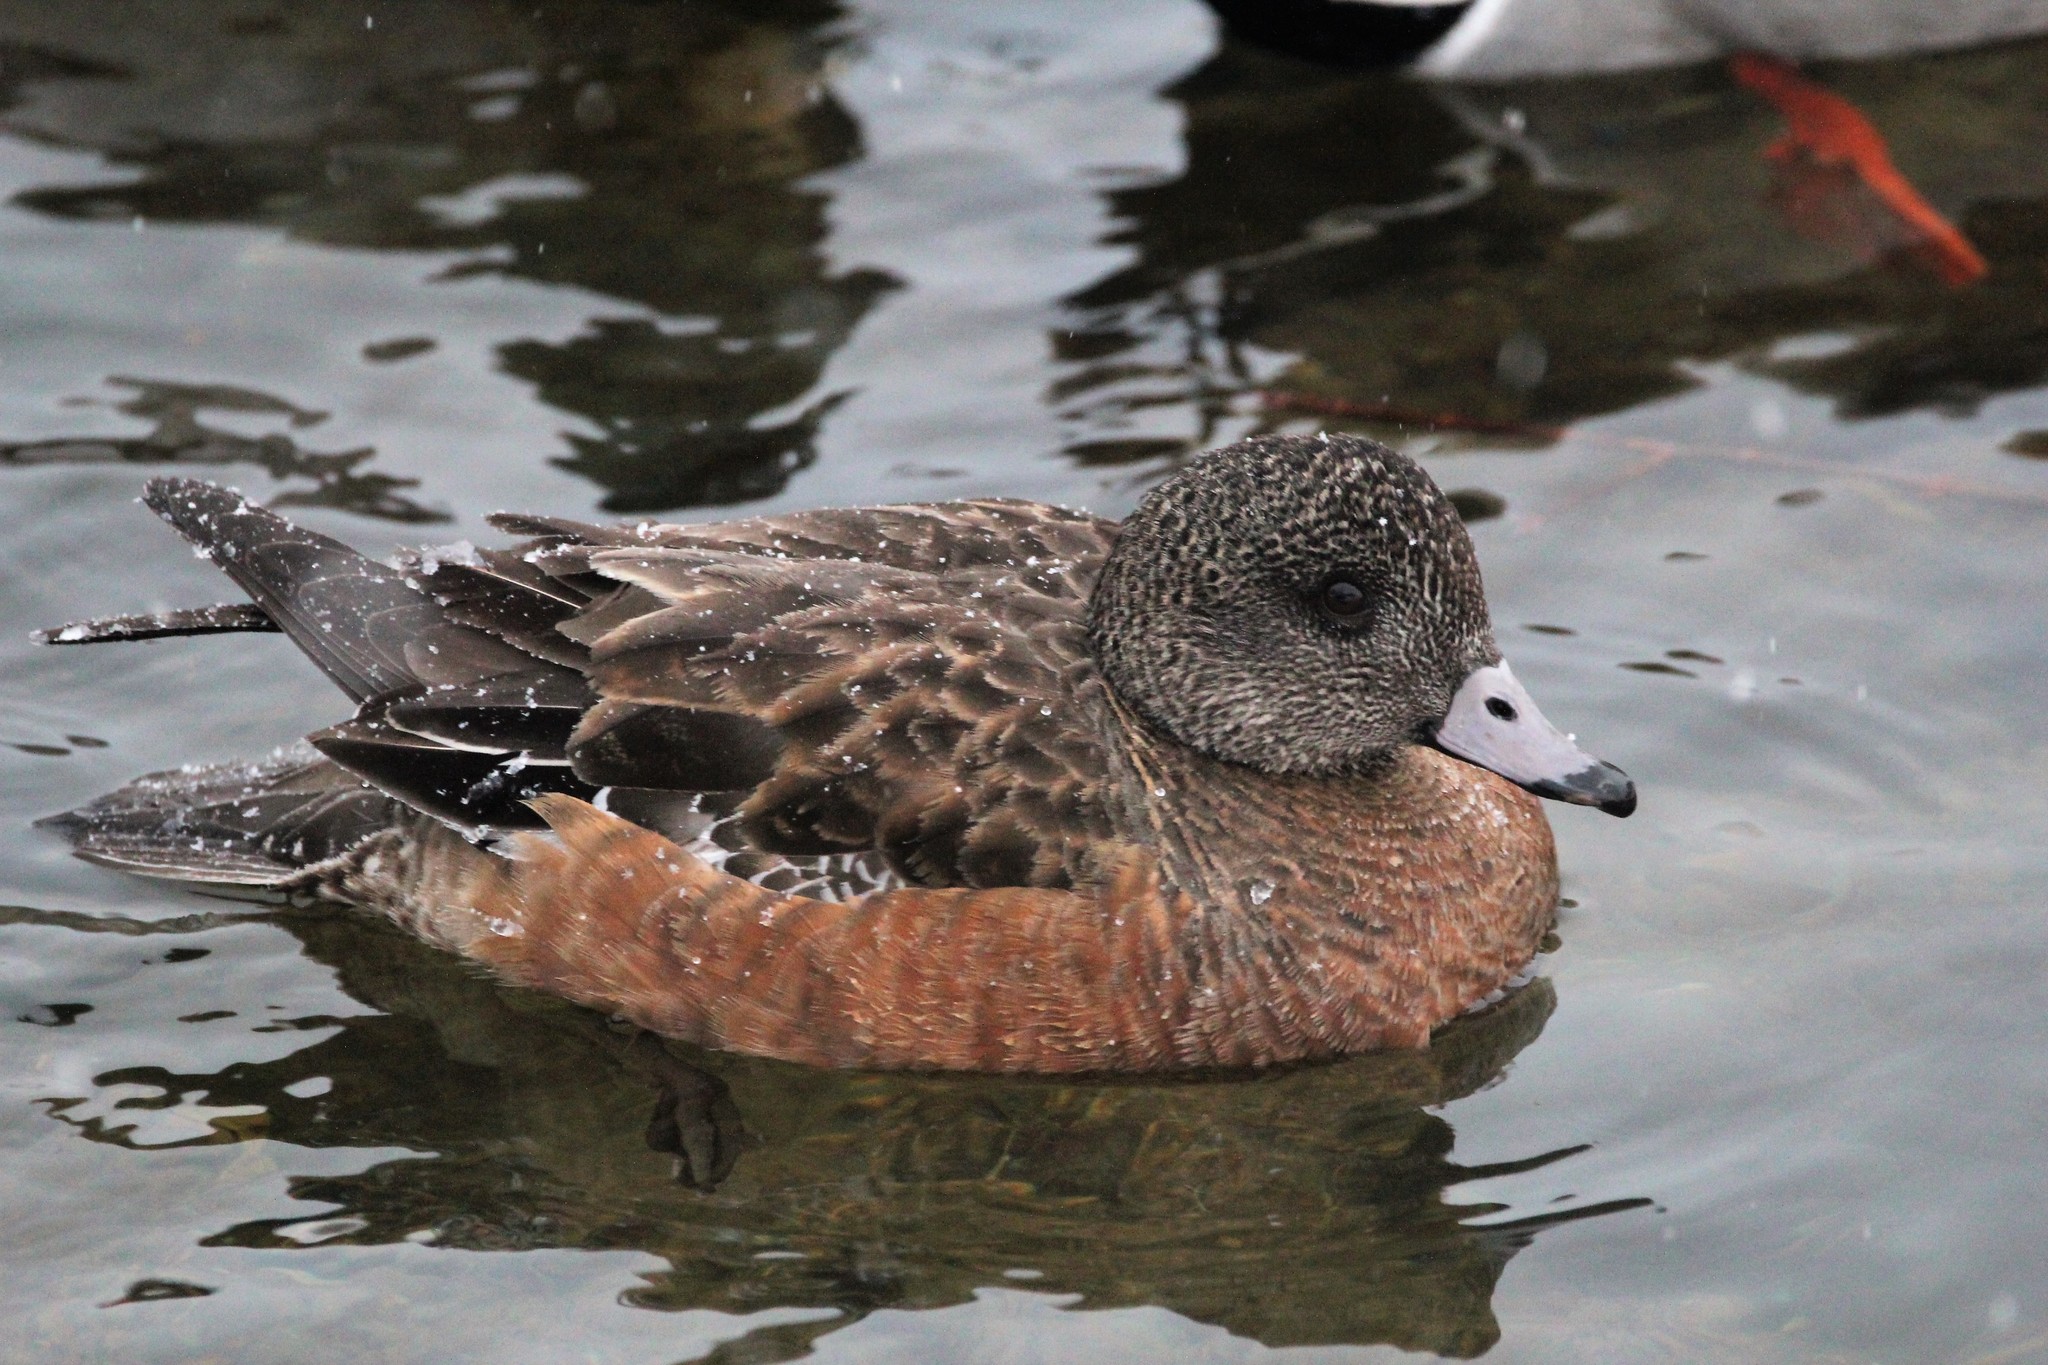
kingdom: Animalia
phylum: Chordata
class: Aves
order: Anseriformes
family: Anatidae
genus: Mareca
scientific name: Mareca americana
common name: American wigeon
